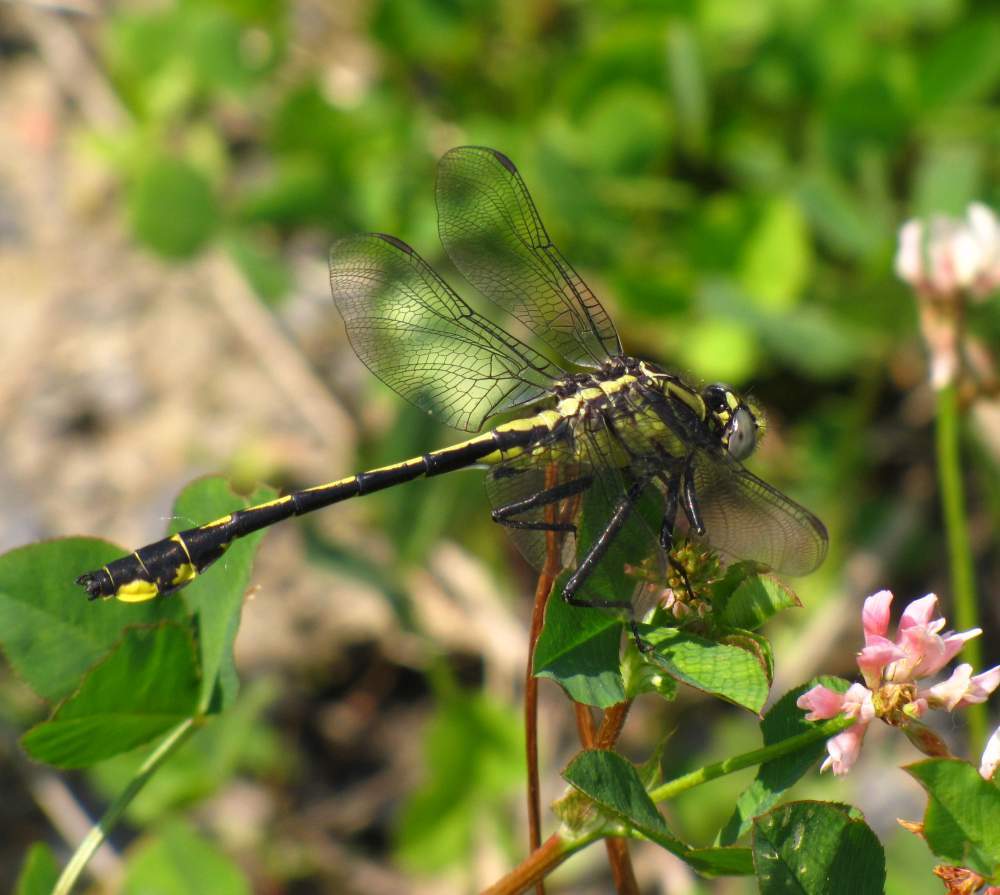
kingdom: Animalia
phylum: Arthropoda
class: Insecta
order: Odonata
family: Gomphidae
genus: Gomphurus
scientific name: Gomphurus fraternus
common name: Midland clubtail
